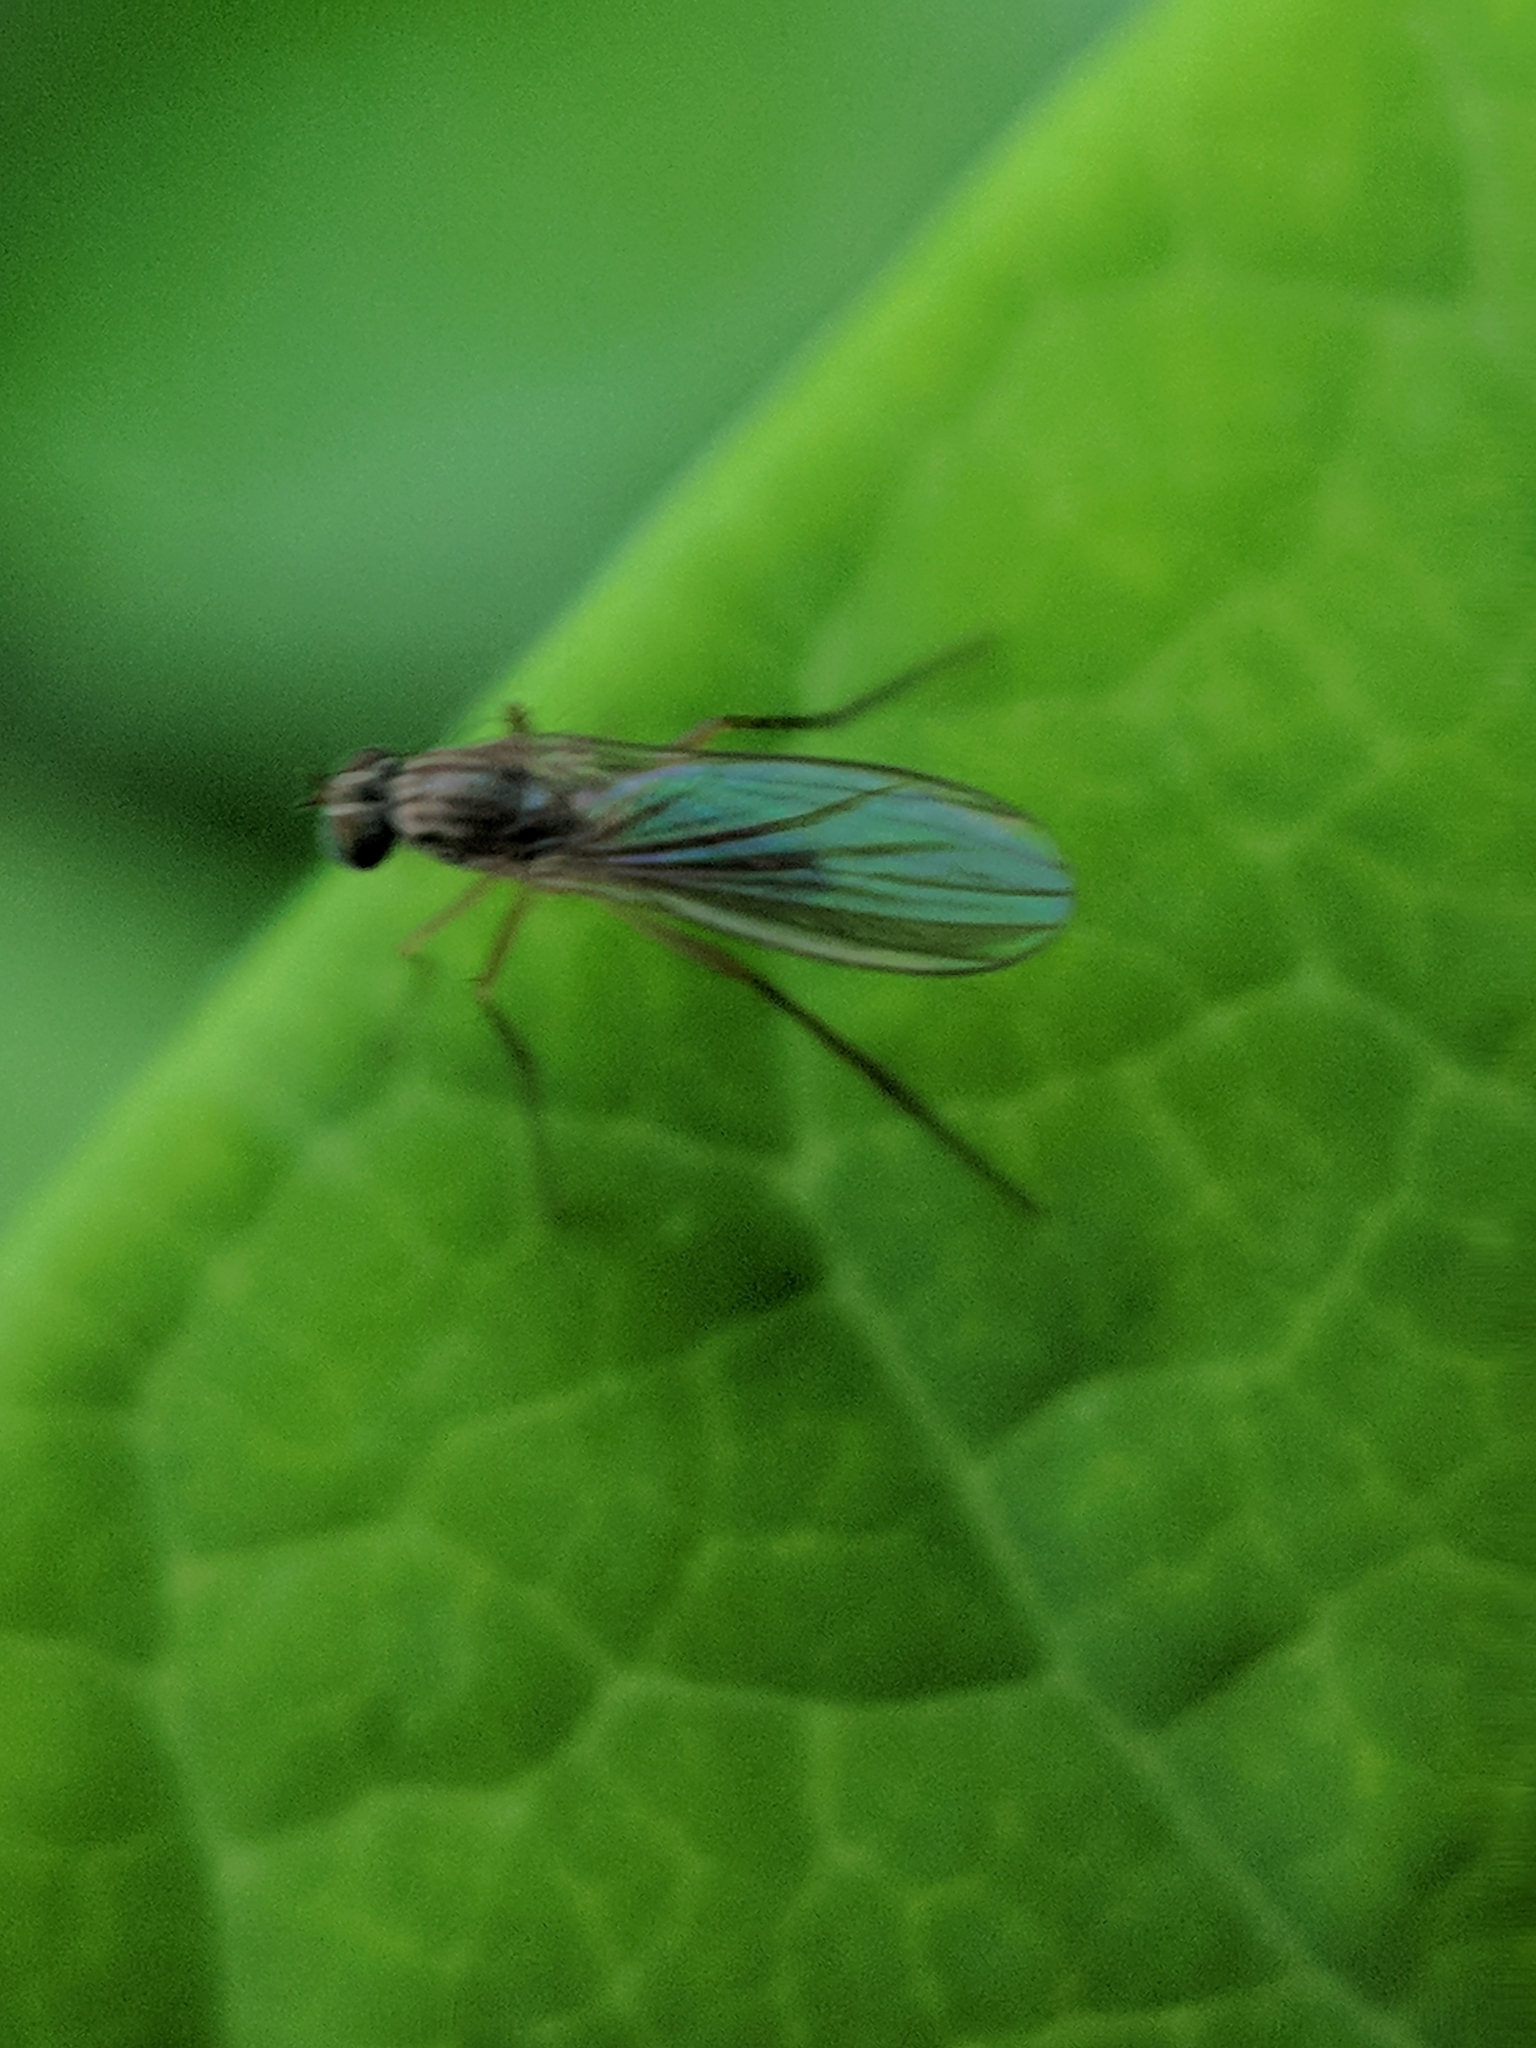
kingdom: Animalia
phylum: Arthropoda
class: Insecta
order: Diptera
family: Dolichopodidae
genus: Sympycnus
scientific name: Sympycnus lineatus
